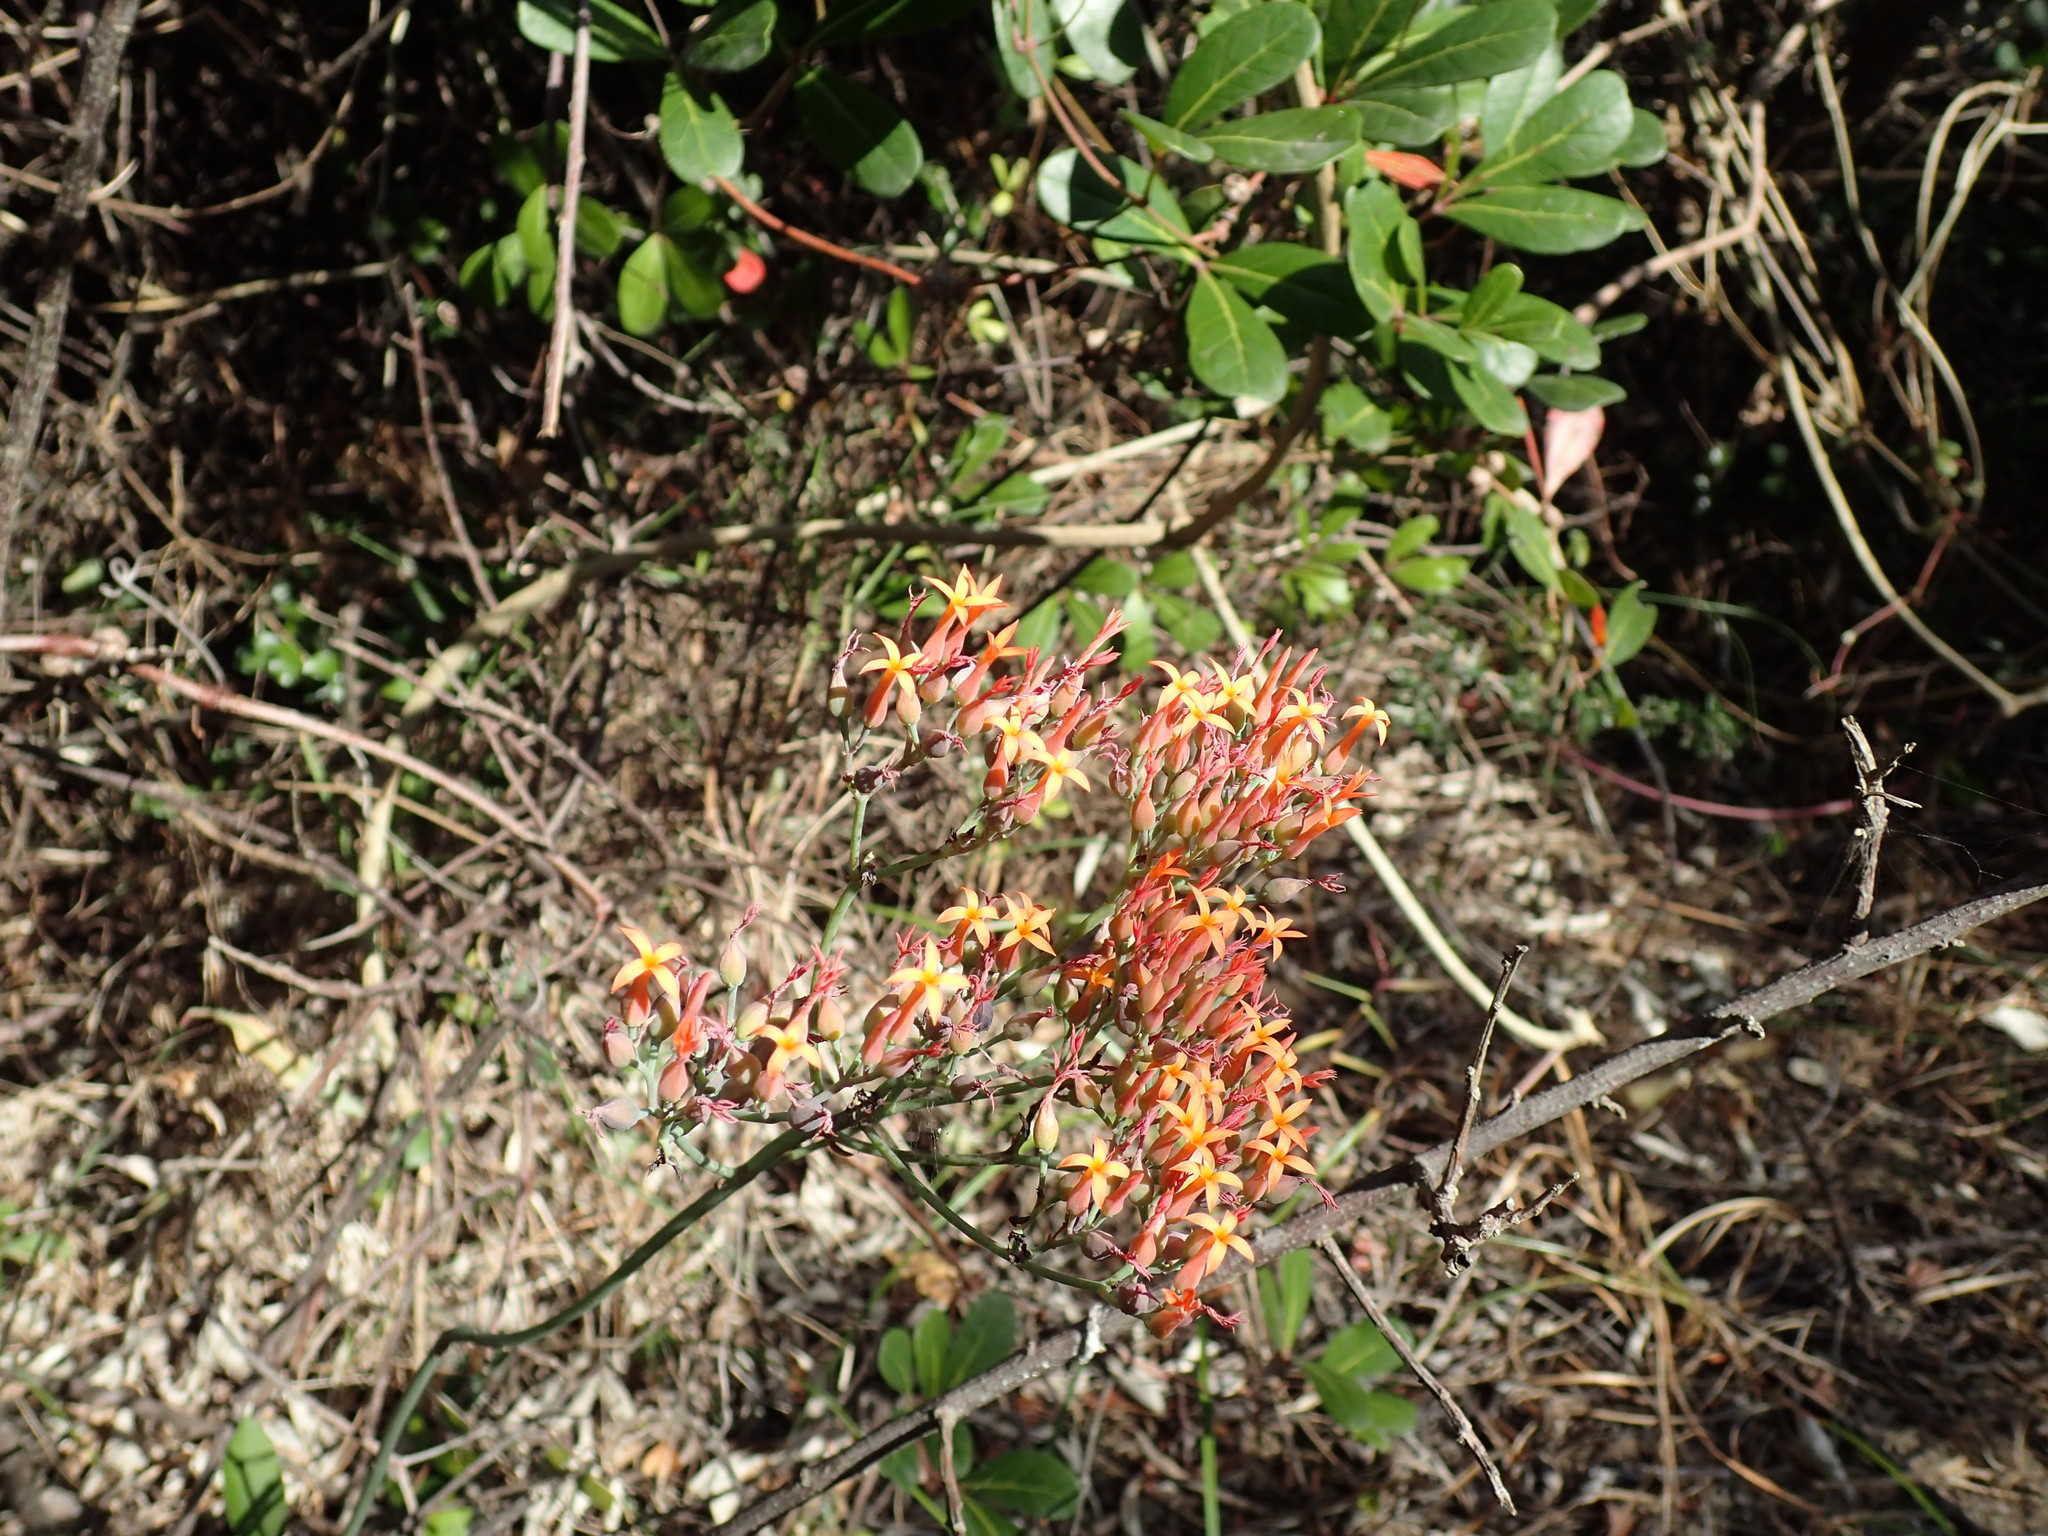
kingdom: Plantae
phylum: Tracheophyta
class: Magnoliopsida
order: Saxifragales
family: Crassulaceae
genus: Kalanchoe
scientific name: Kalanchoe rotundifolia
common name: Common kalanchoe
